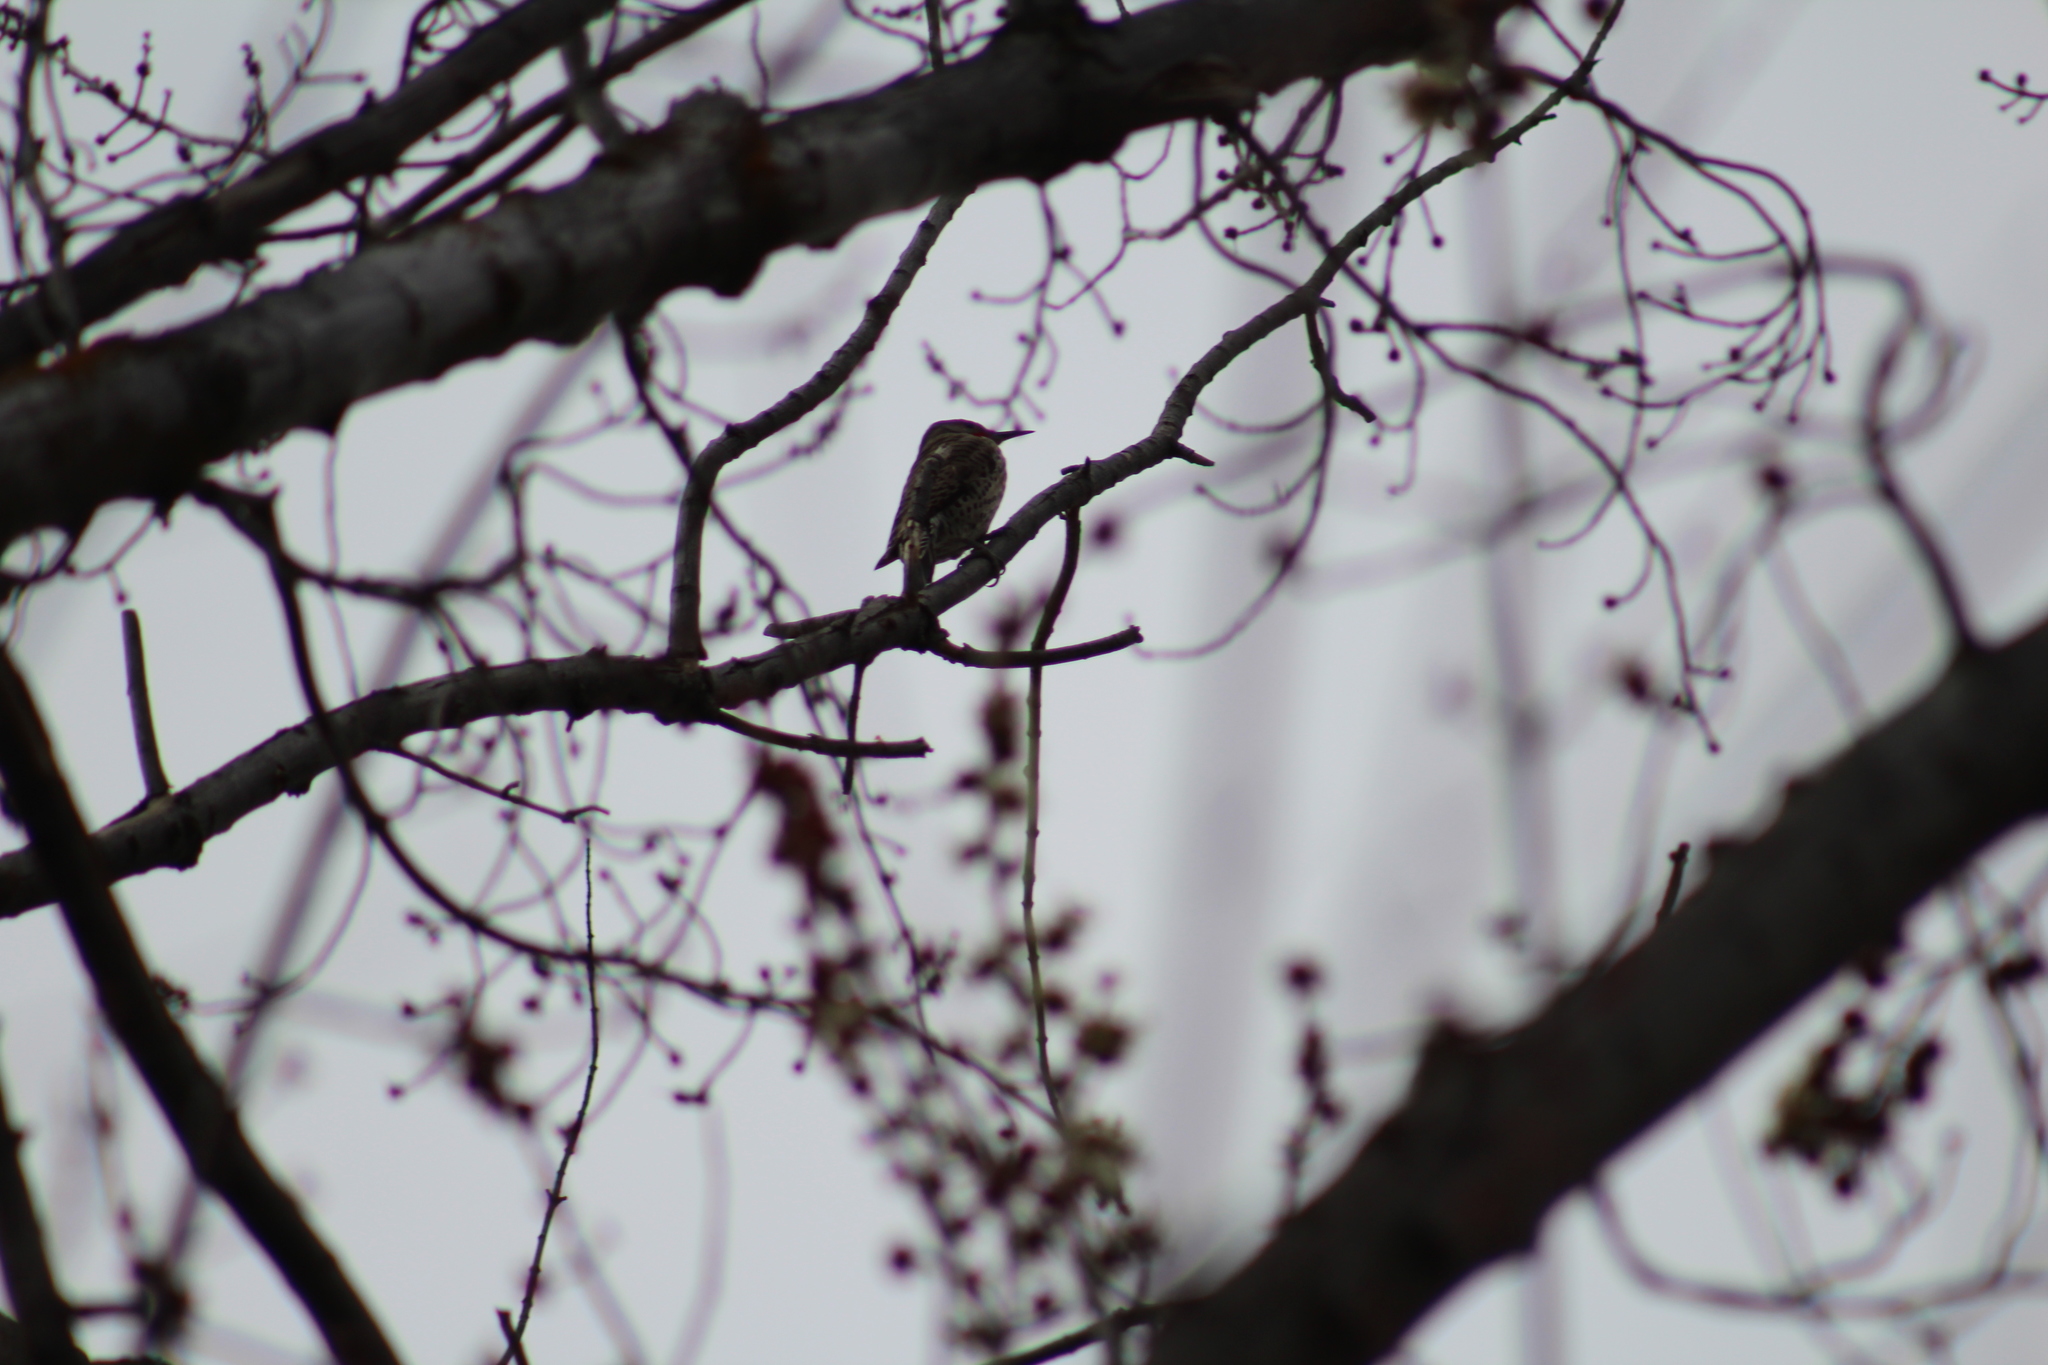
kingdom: Animalia
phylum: Chordata
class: Aves
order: Piciformes
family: Picidae
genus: Colaptes
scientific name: Colaptes auratus
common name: Northern flicker
